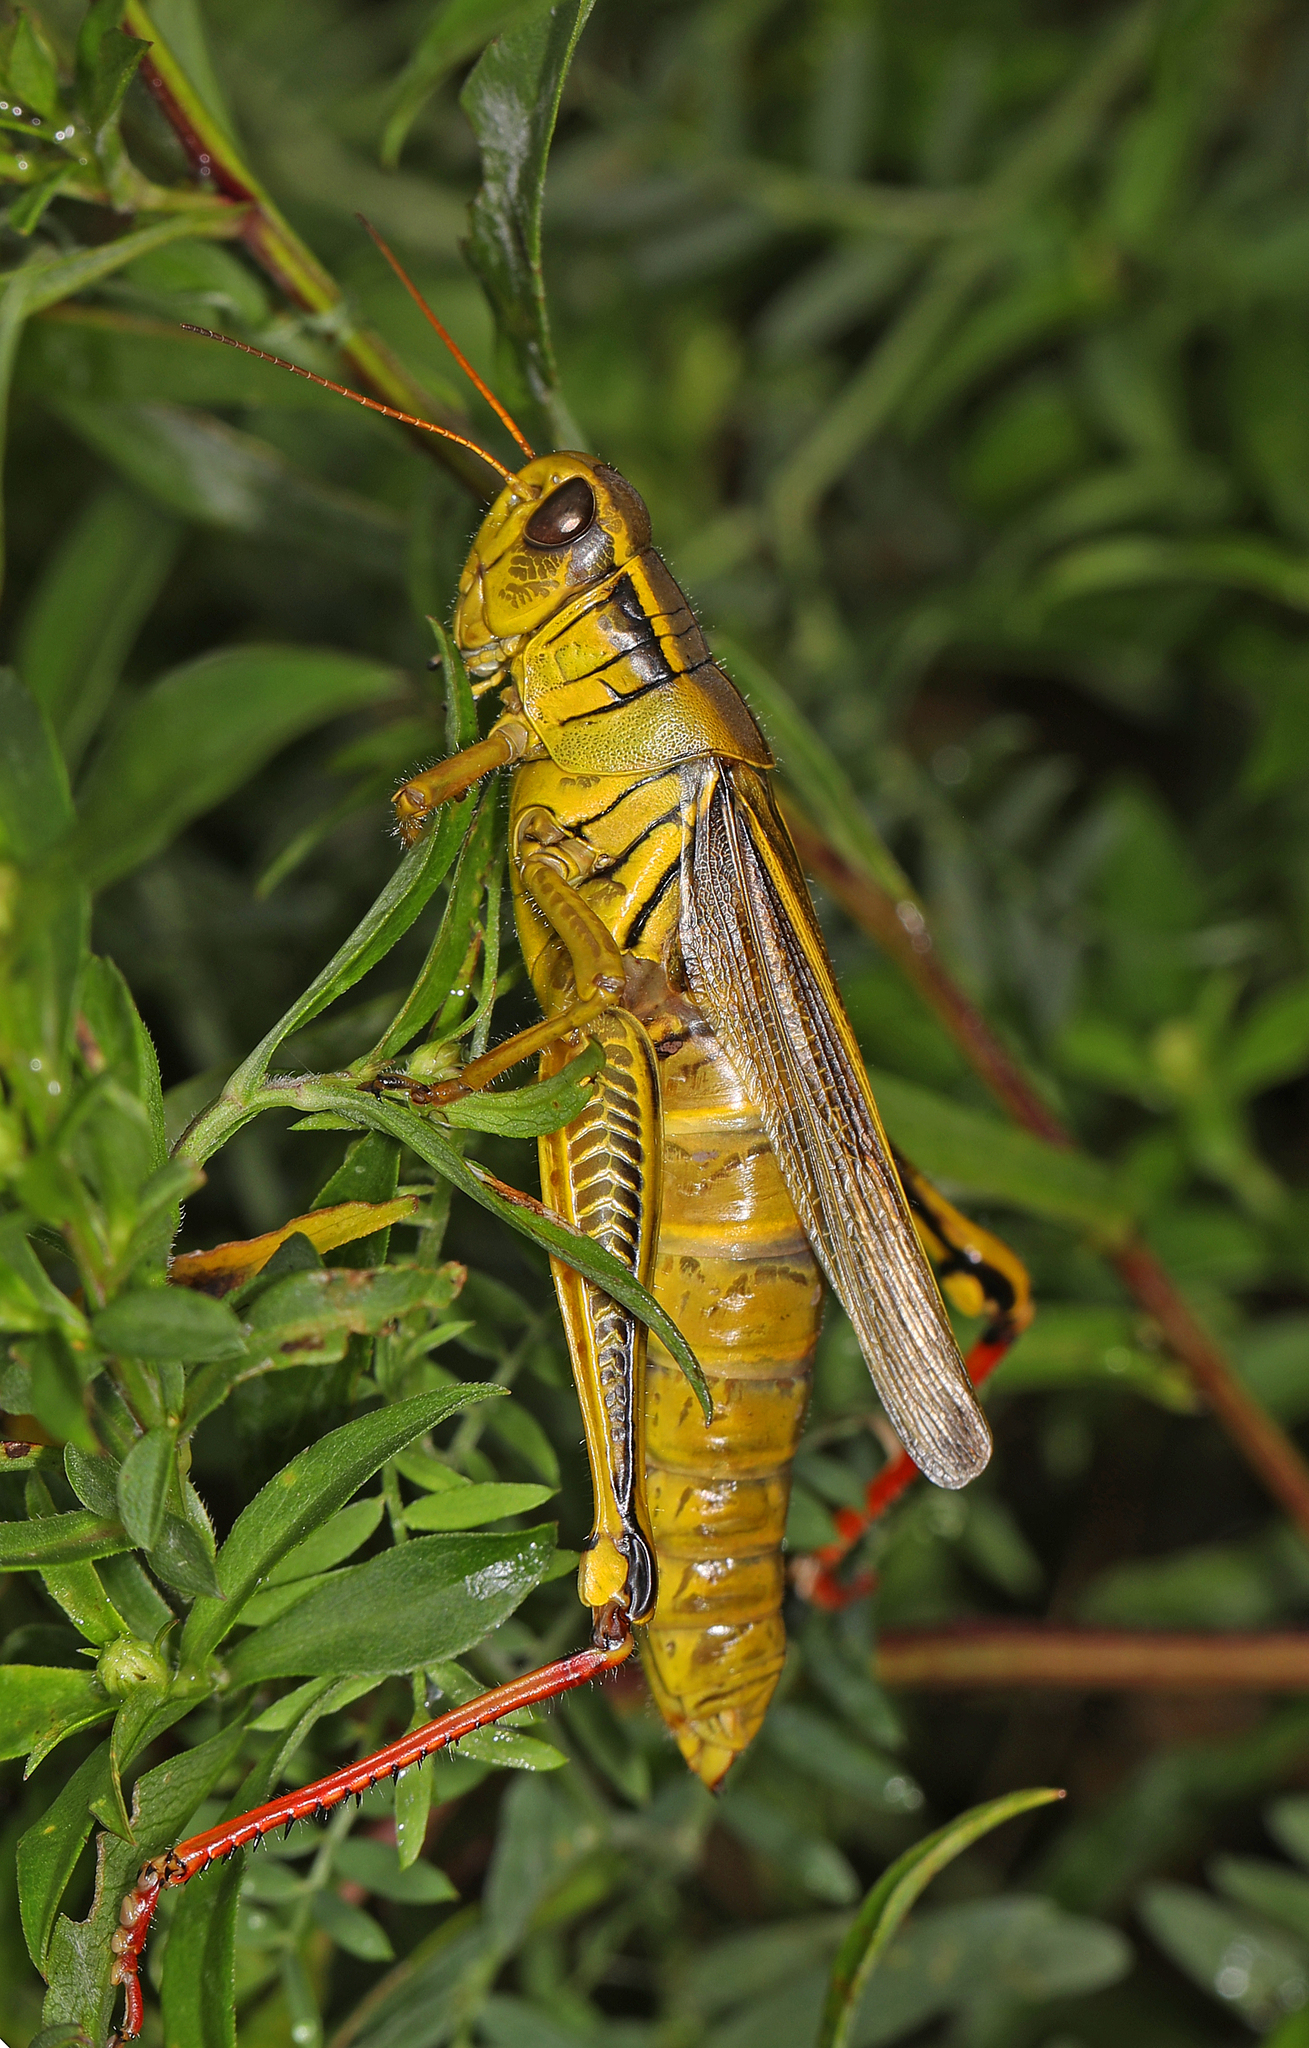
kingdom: Animalia
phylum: Arthropoda
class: Insecta
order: Orthoptera
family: Acrididae
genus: Melanoplus
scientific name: Melanoplus bivittatus
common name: Two-striped grasshopper
